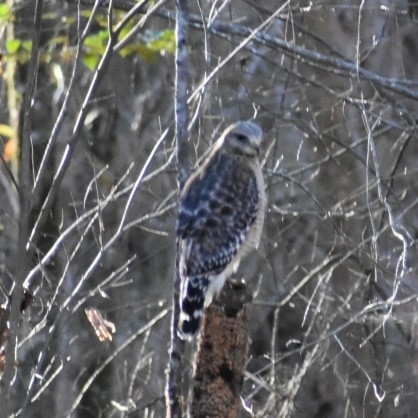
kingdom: Animalia
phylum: Chordata
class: Aves
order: Accipitriformes
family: Accipitridae
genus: Buteo
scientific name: Buteo lineatus
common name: Red-shouldered hawk
